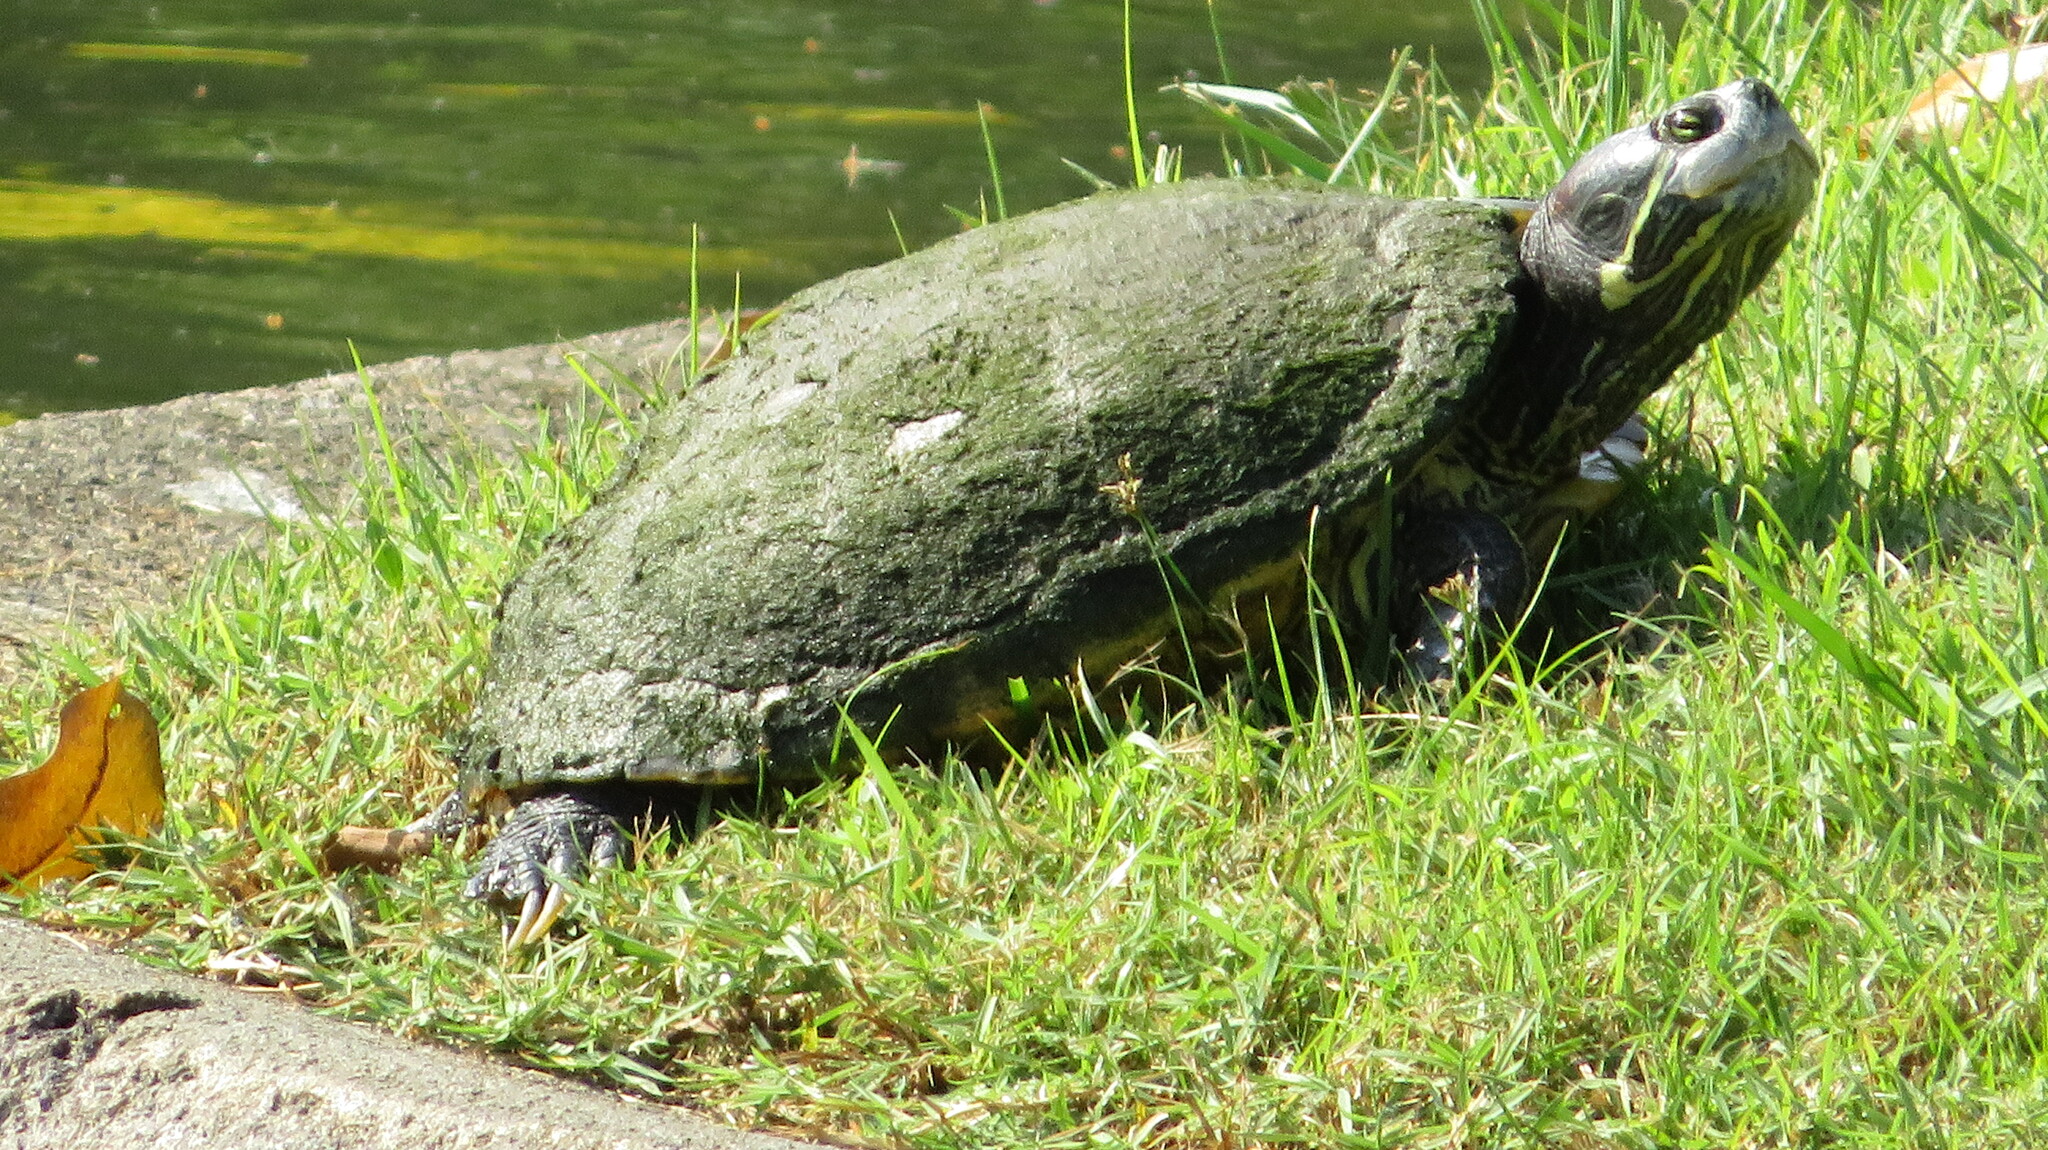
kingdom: Animalia
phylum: Chordata
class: Testudines
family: Emydidae
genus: Trachemys
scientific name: Trachemys scripta
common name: Slider
